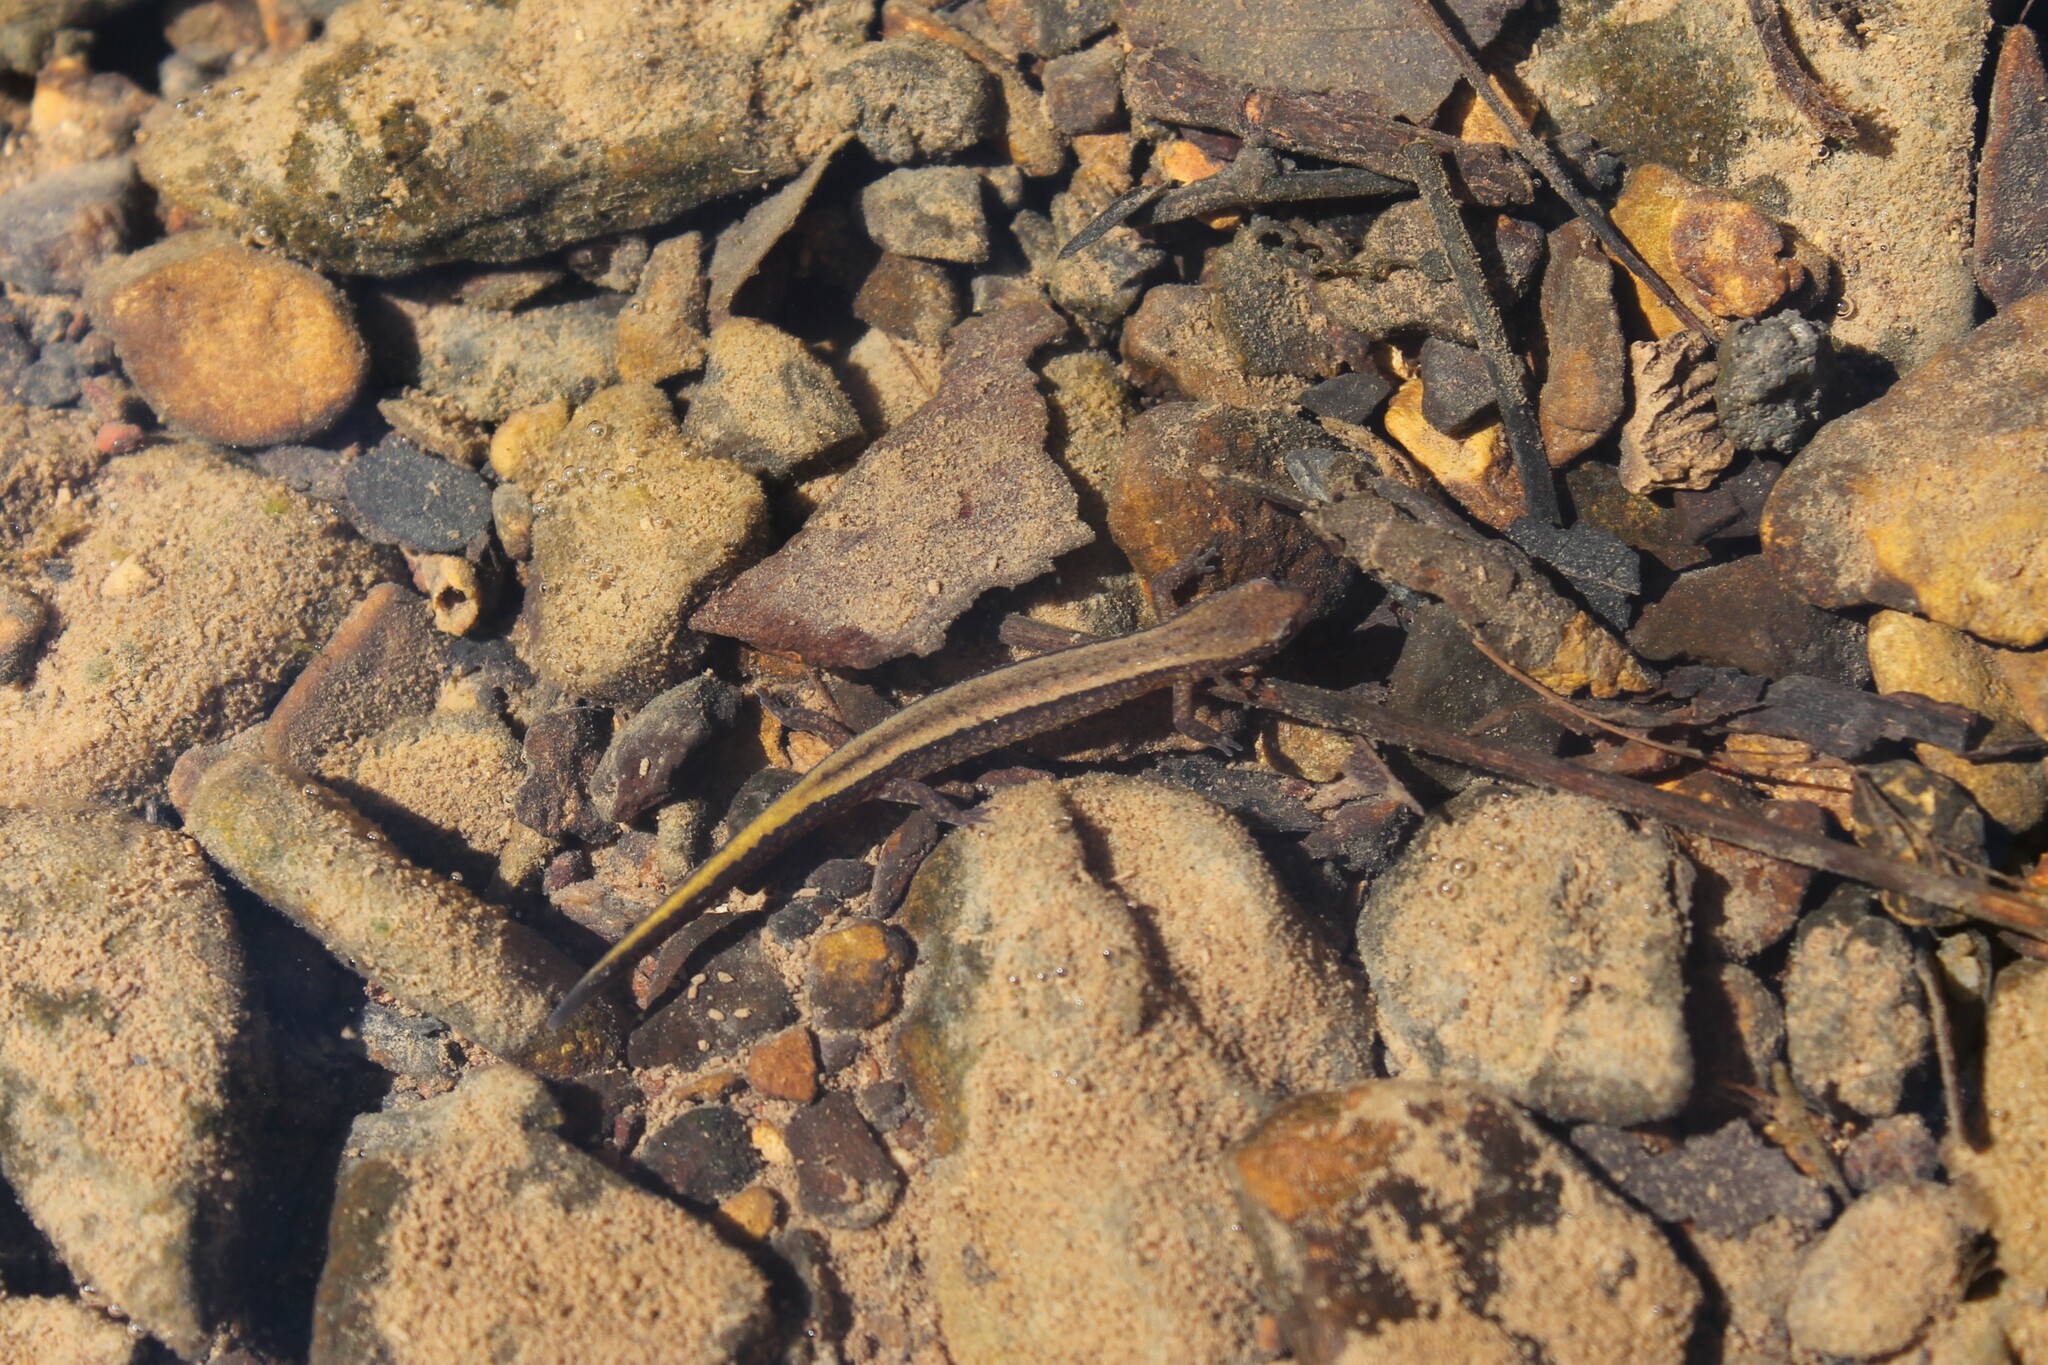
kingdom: Animalia
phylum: Chordata
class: Amphibia
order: Caudata
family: Plethodontidae
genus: Eurycea
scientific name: Eurycea cirrigera
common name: Southern two-lined salamander
